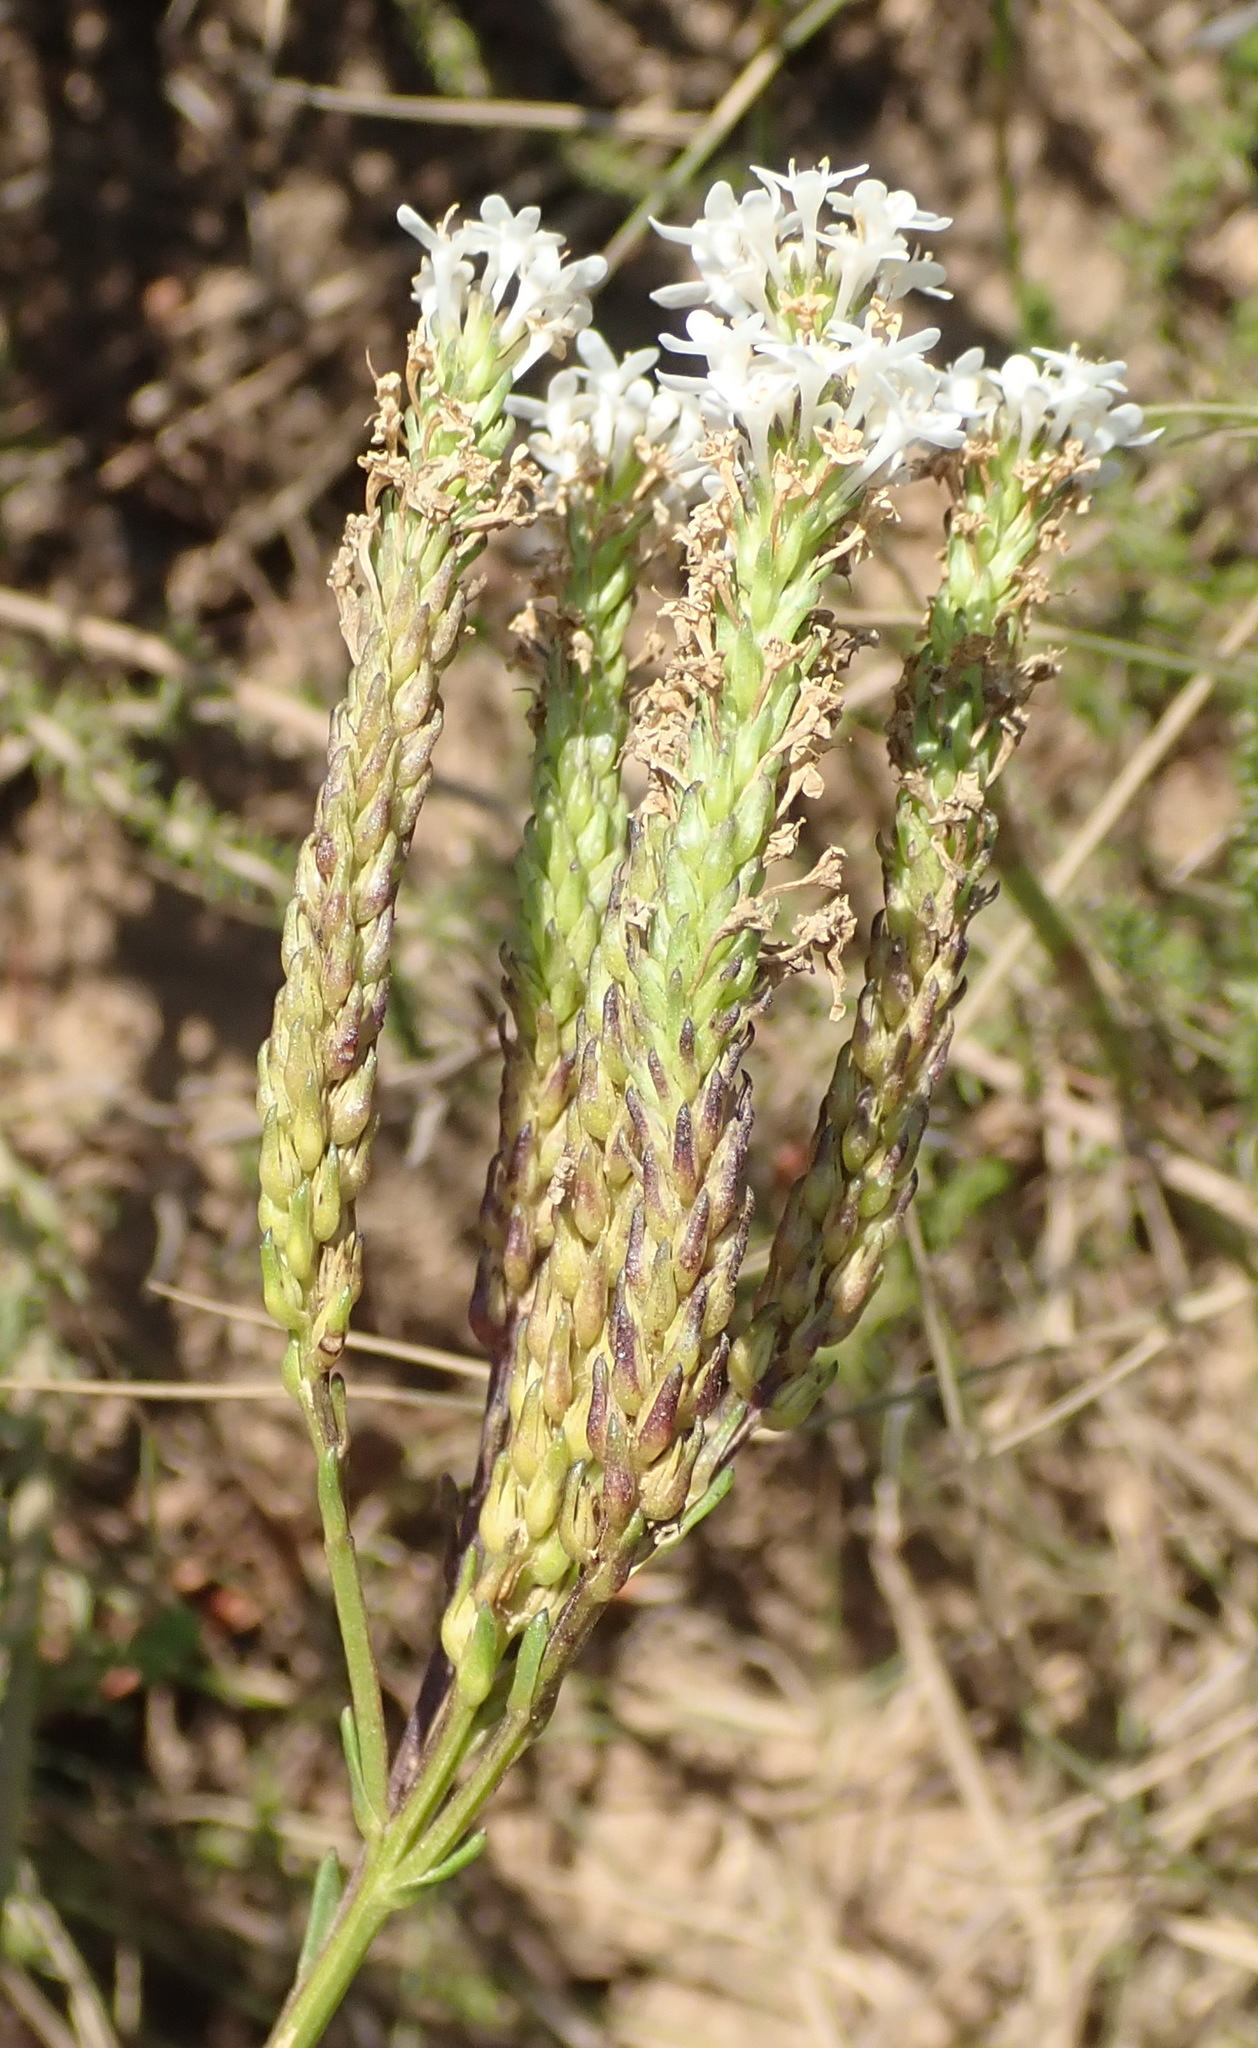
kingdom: Plantae
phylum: Tracheophyta
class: Magnoliopsida
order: Lamiales
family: Scrophulariaceae
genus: Pseudoselago
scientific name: Pseudoselago outeniquensis
